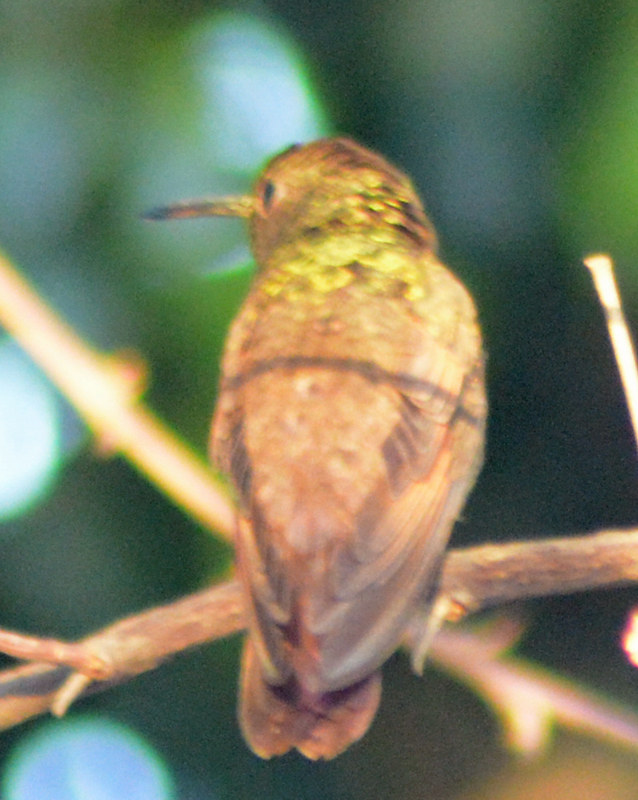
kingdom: Animalia
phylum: Chordata
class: Aves
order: Apodiformes
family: Trochilidae
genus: Saucerottia
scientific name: Saucerottia beryllina
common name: Berylline hummingbird
